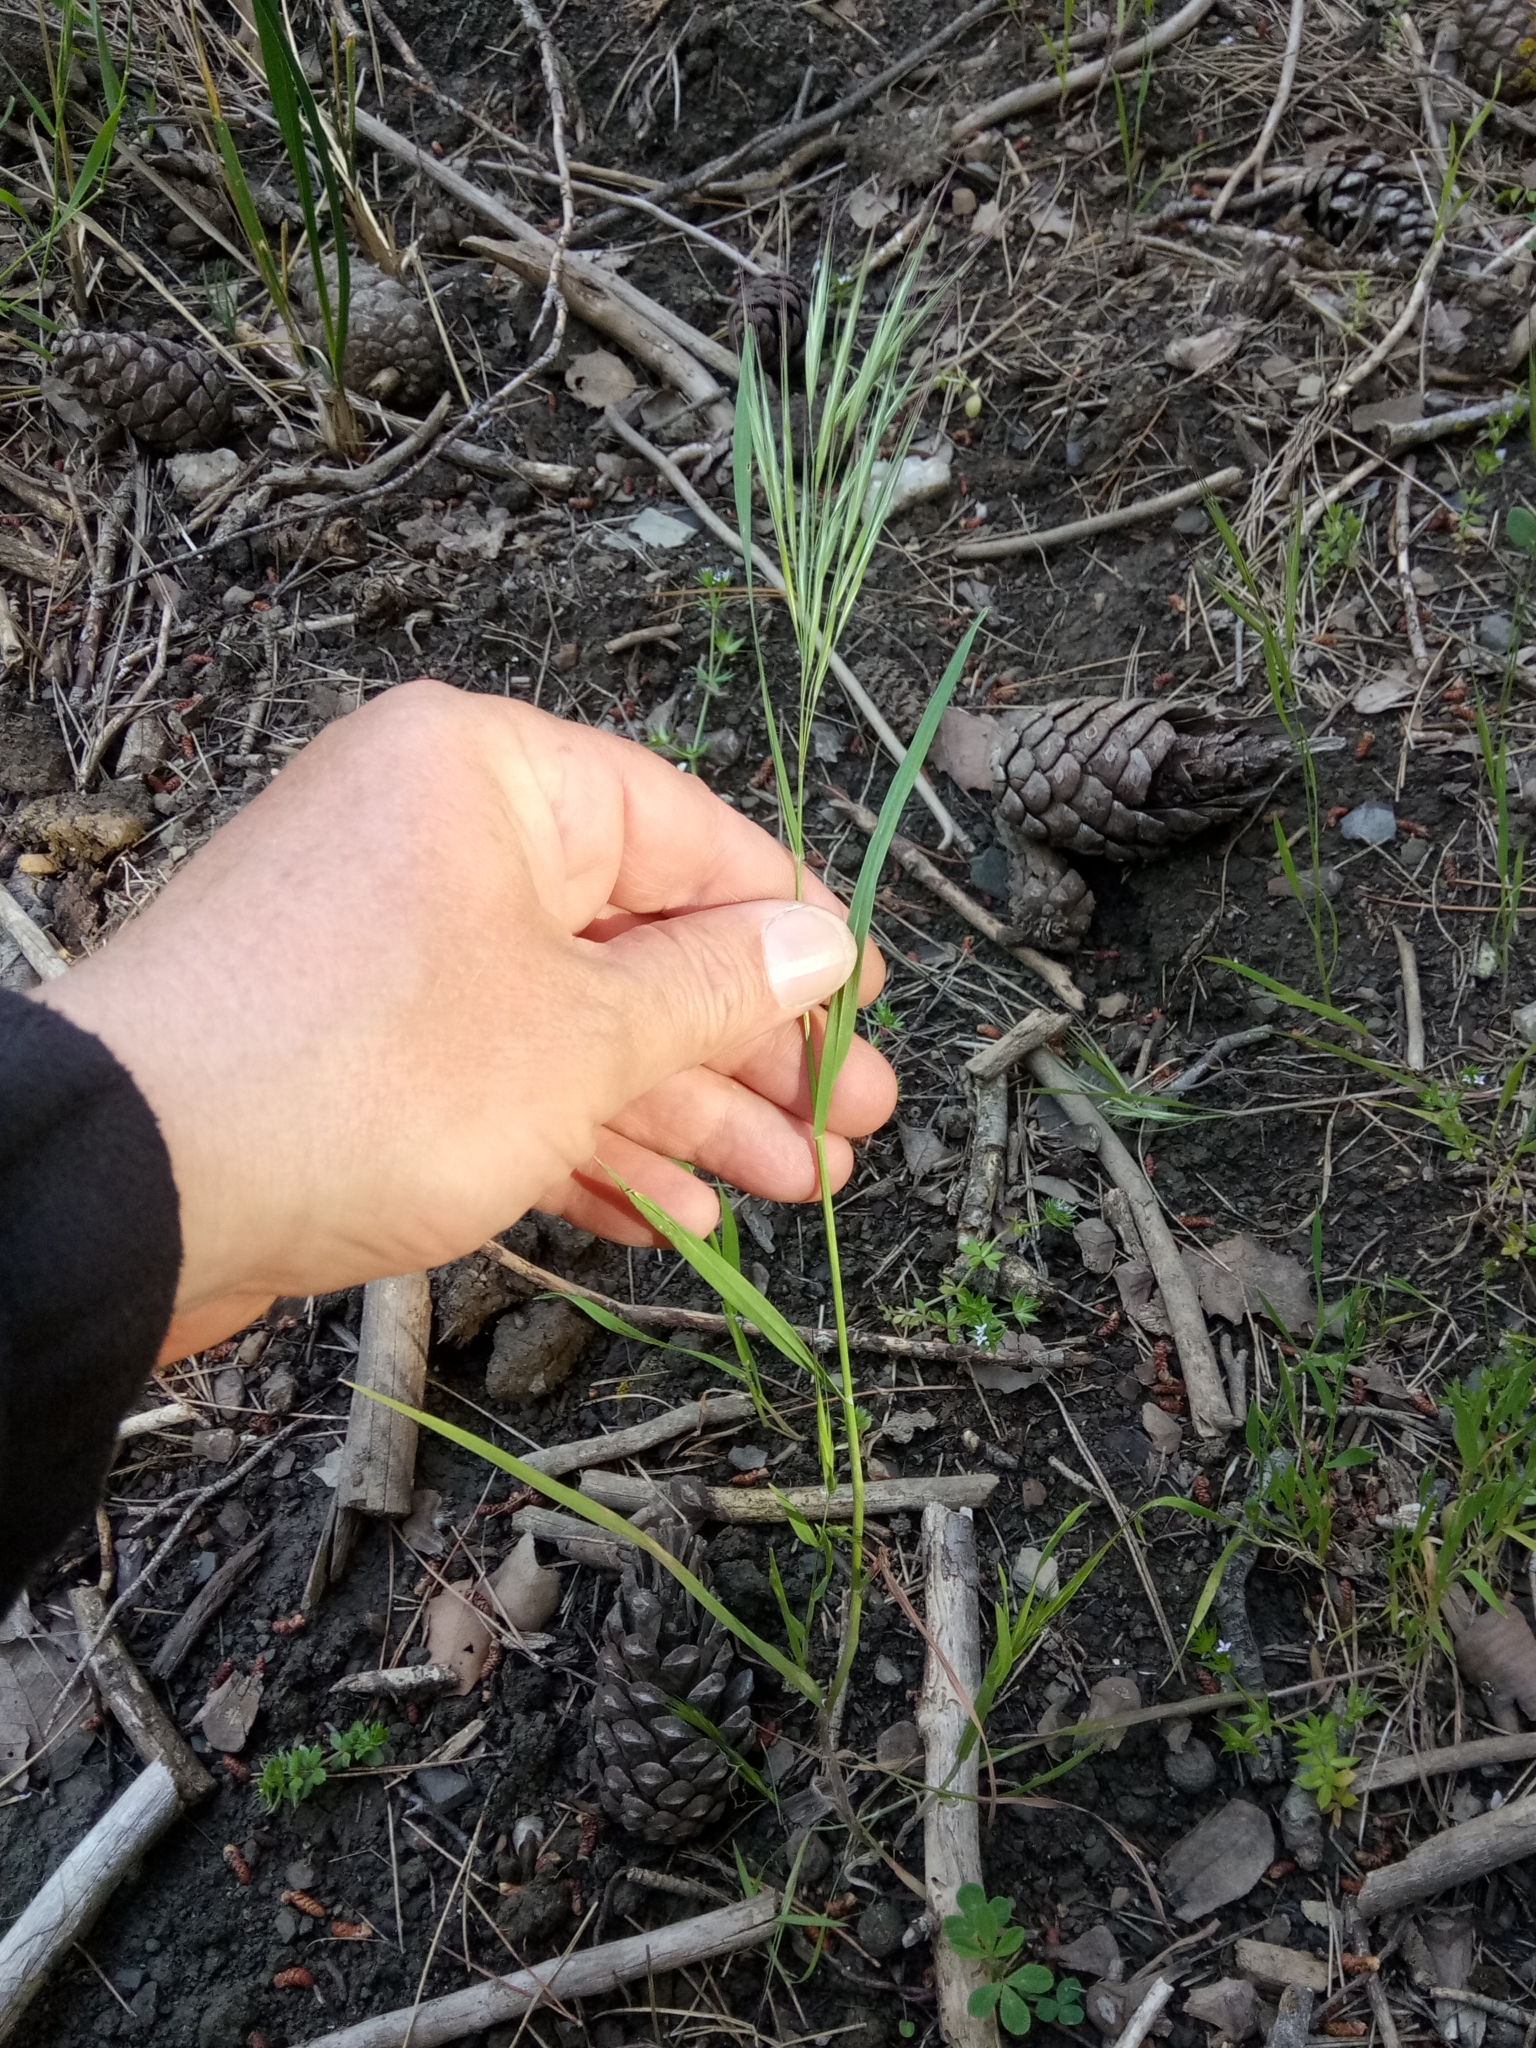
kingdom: Plantae
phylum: Tracheophyta
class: Liliopsida
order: Poales
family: Poaceae
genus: Bromus
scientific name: Bromus madritensis
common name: Compact brome
